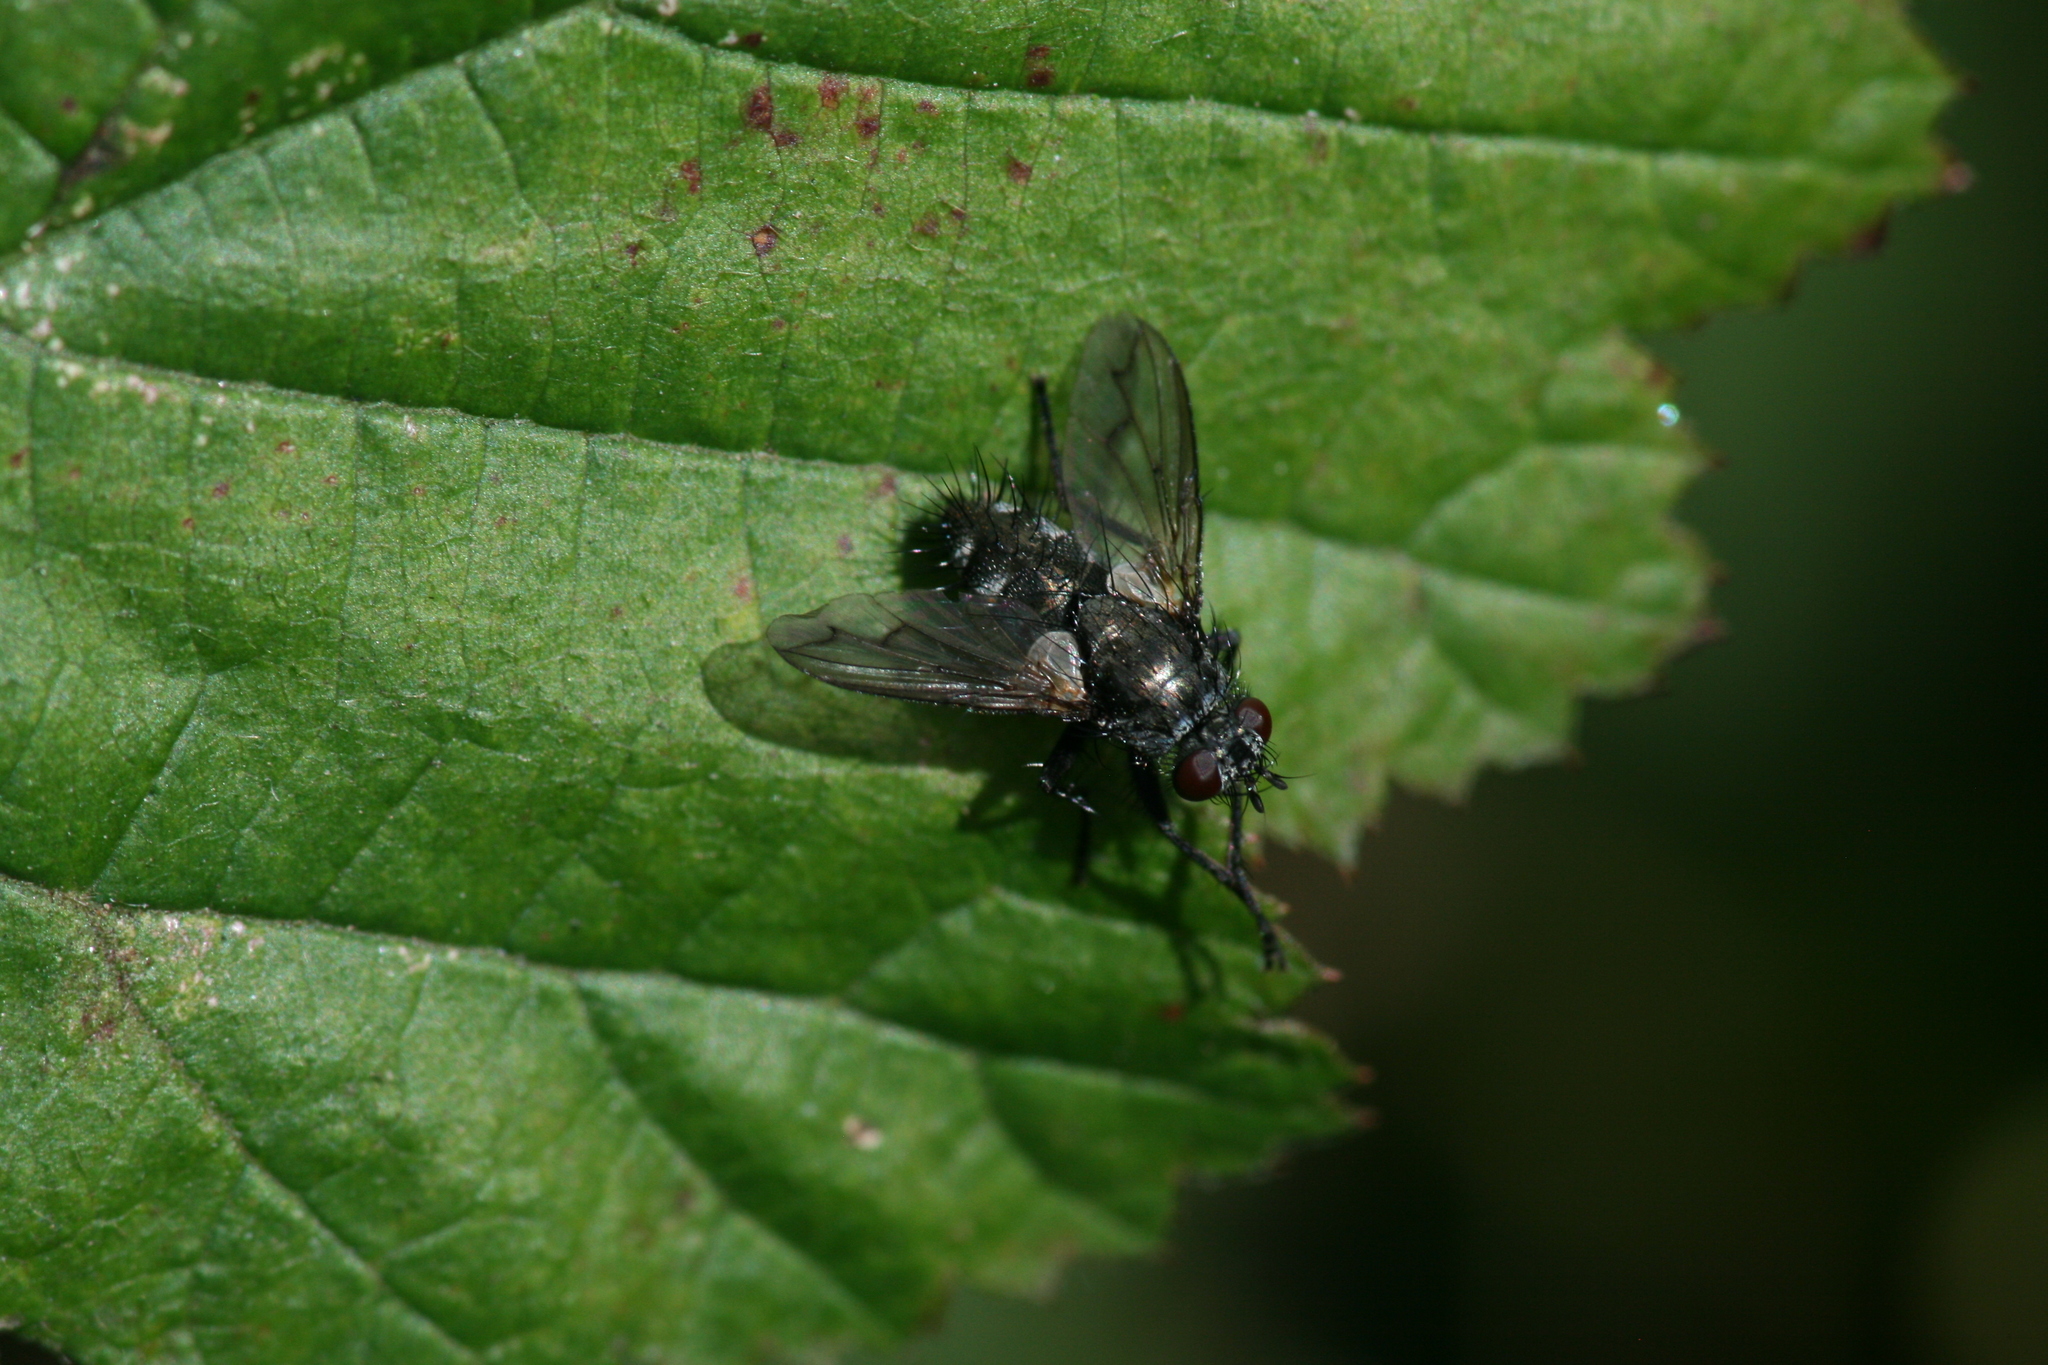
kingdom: Animalia
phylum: Arthropoda
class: Insecta
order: Diptera
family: Tachinidae
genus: Periscepsia
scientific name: Periscepsia spathulata
